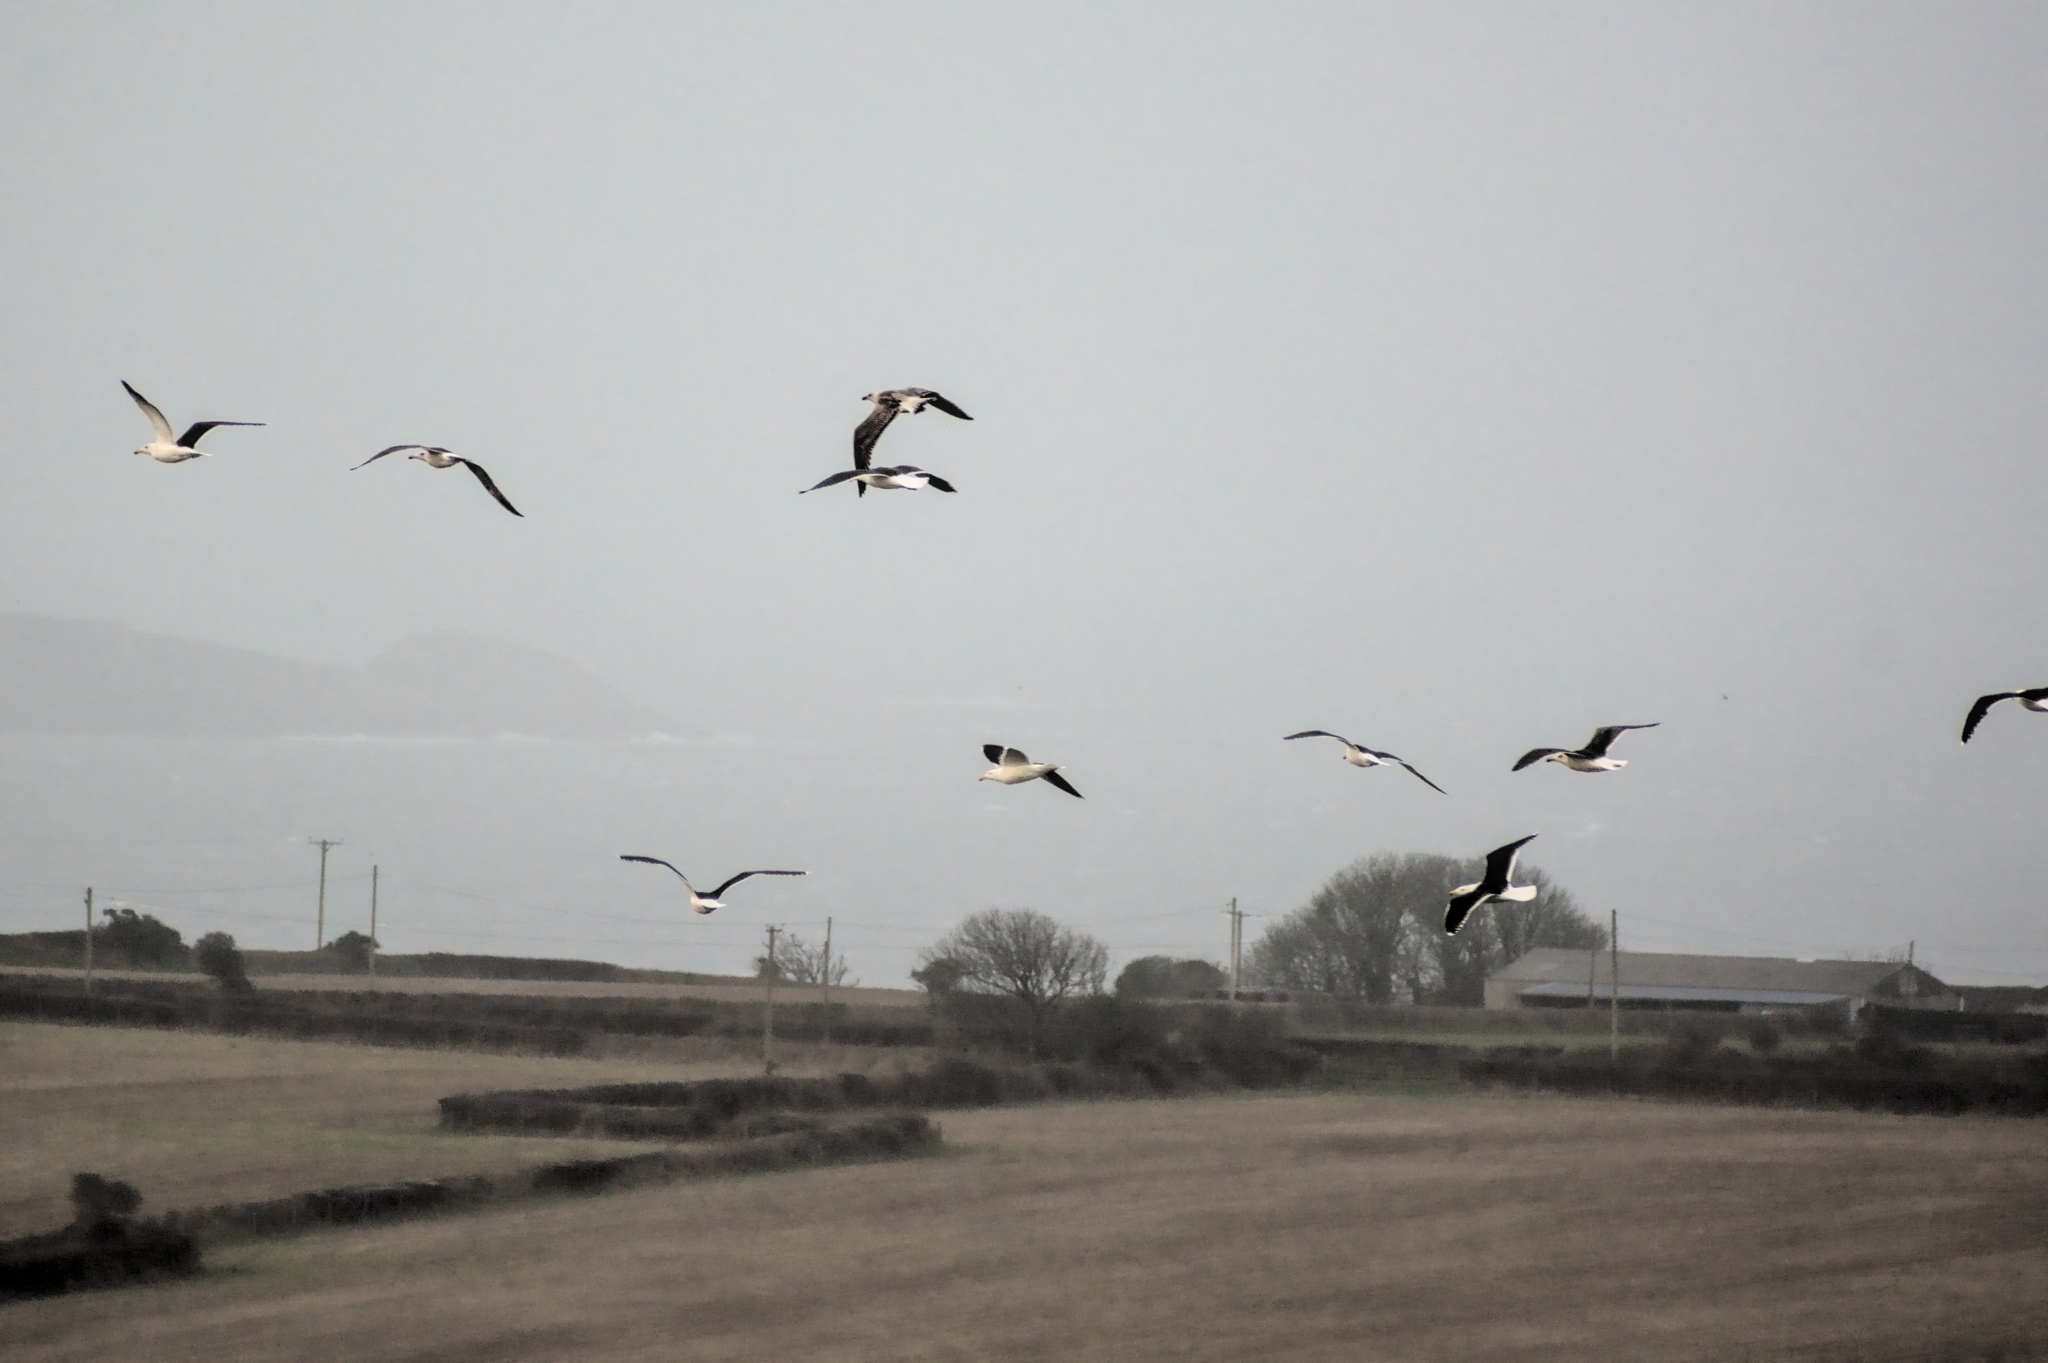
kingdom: Animalia
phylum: Chordata
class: Aves
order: Charadriiformes
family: Laridae
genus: Larus
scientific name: Larus marinus
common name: Great black-backed gull
